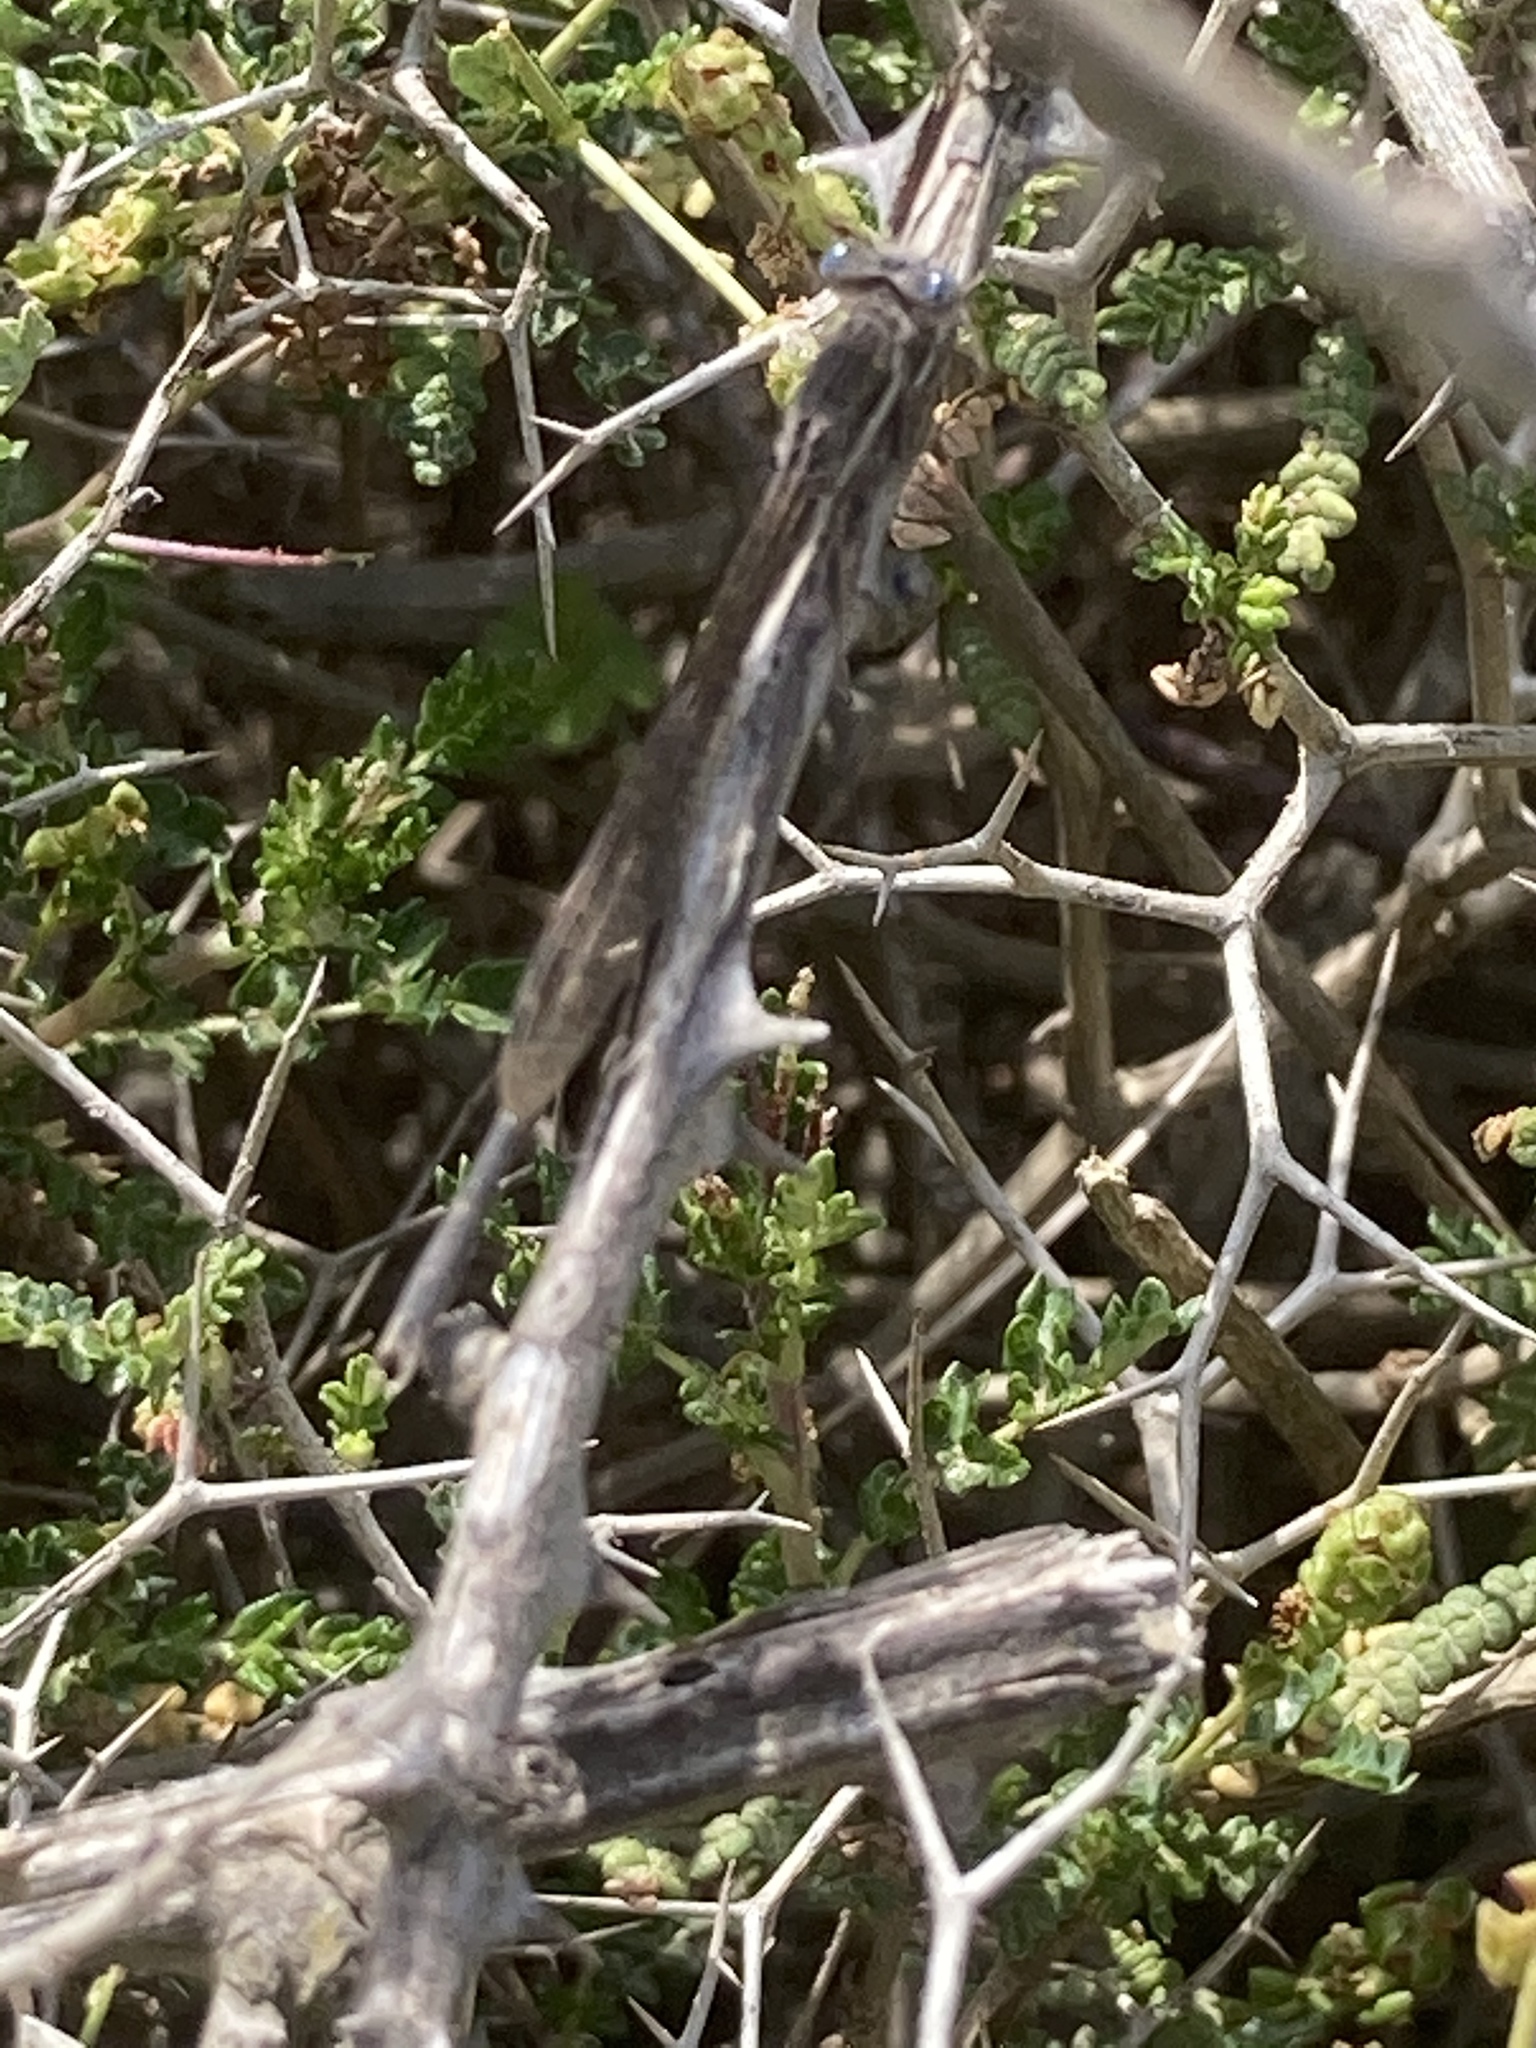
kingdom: Animalia
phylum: Arthropoda
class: Insecta
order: Odonata
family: Lestidae
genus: Sympecma
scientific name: Sympecma fusca
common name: Common winter damsel
